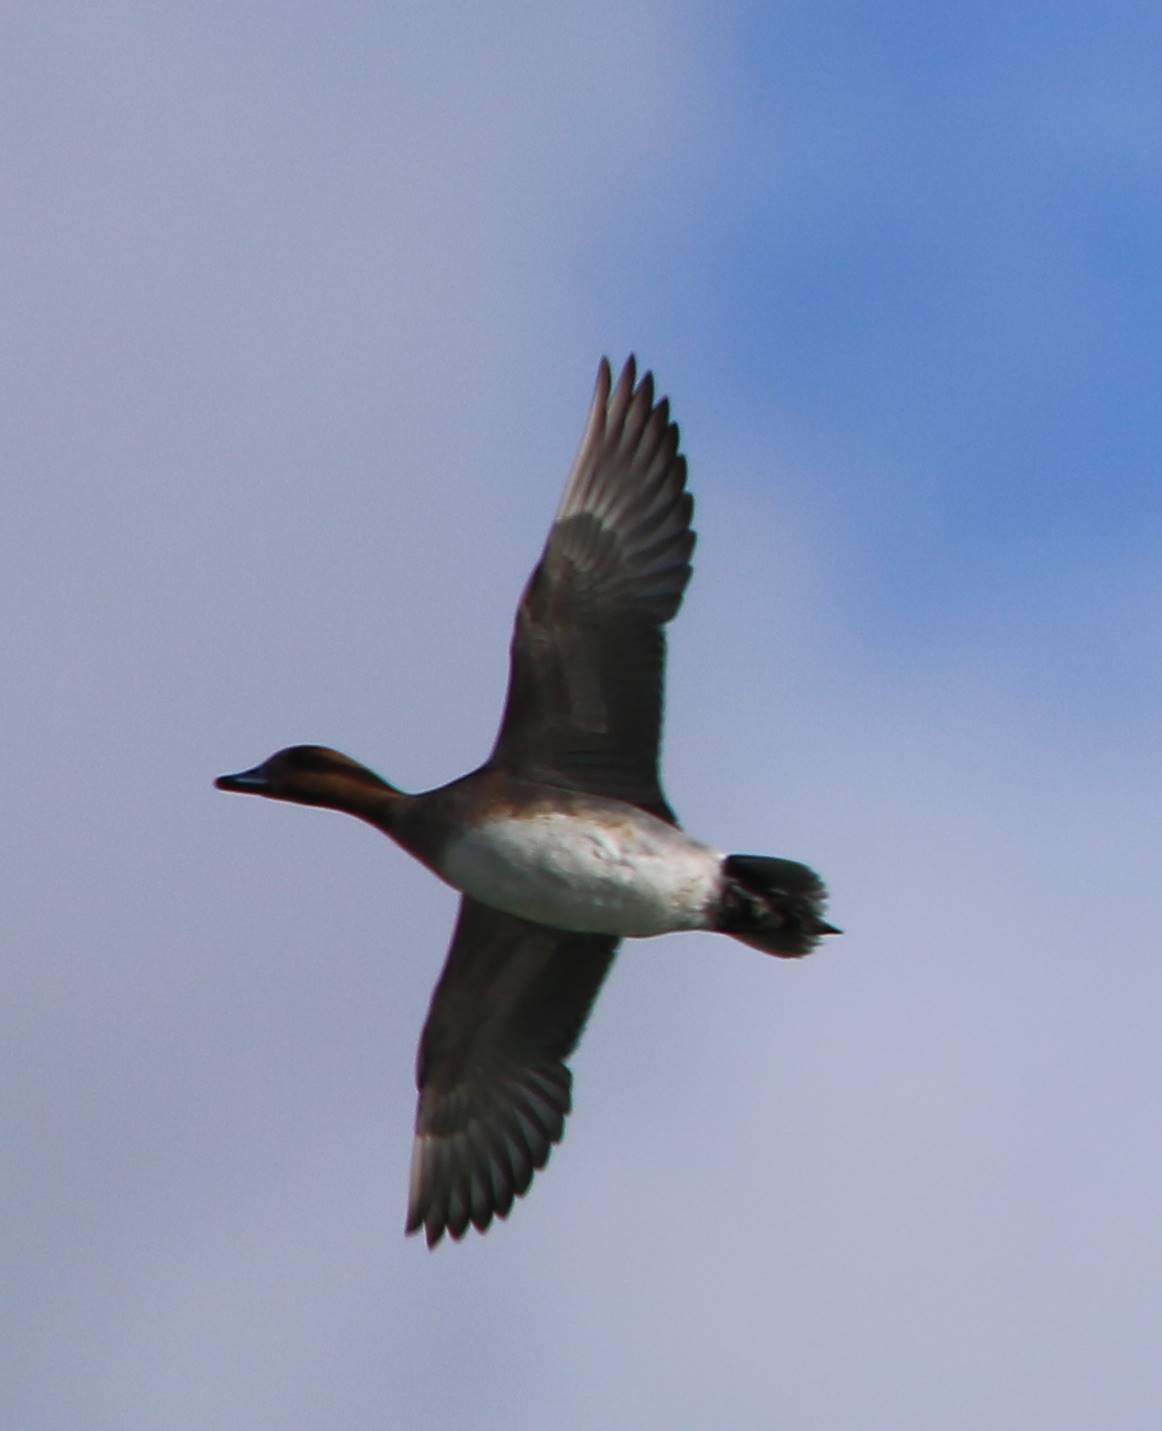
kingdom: Animalia
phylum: Chordata
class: Aves
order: Anseriformes
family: Anatidae
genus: Mareca
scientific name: Mareca penelope
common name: Eurasian wigeon
